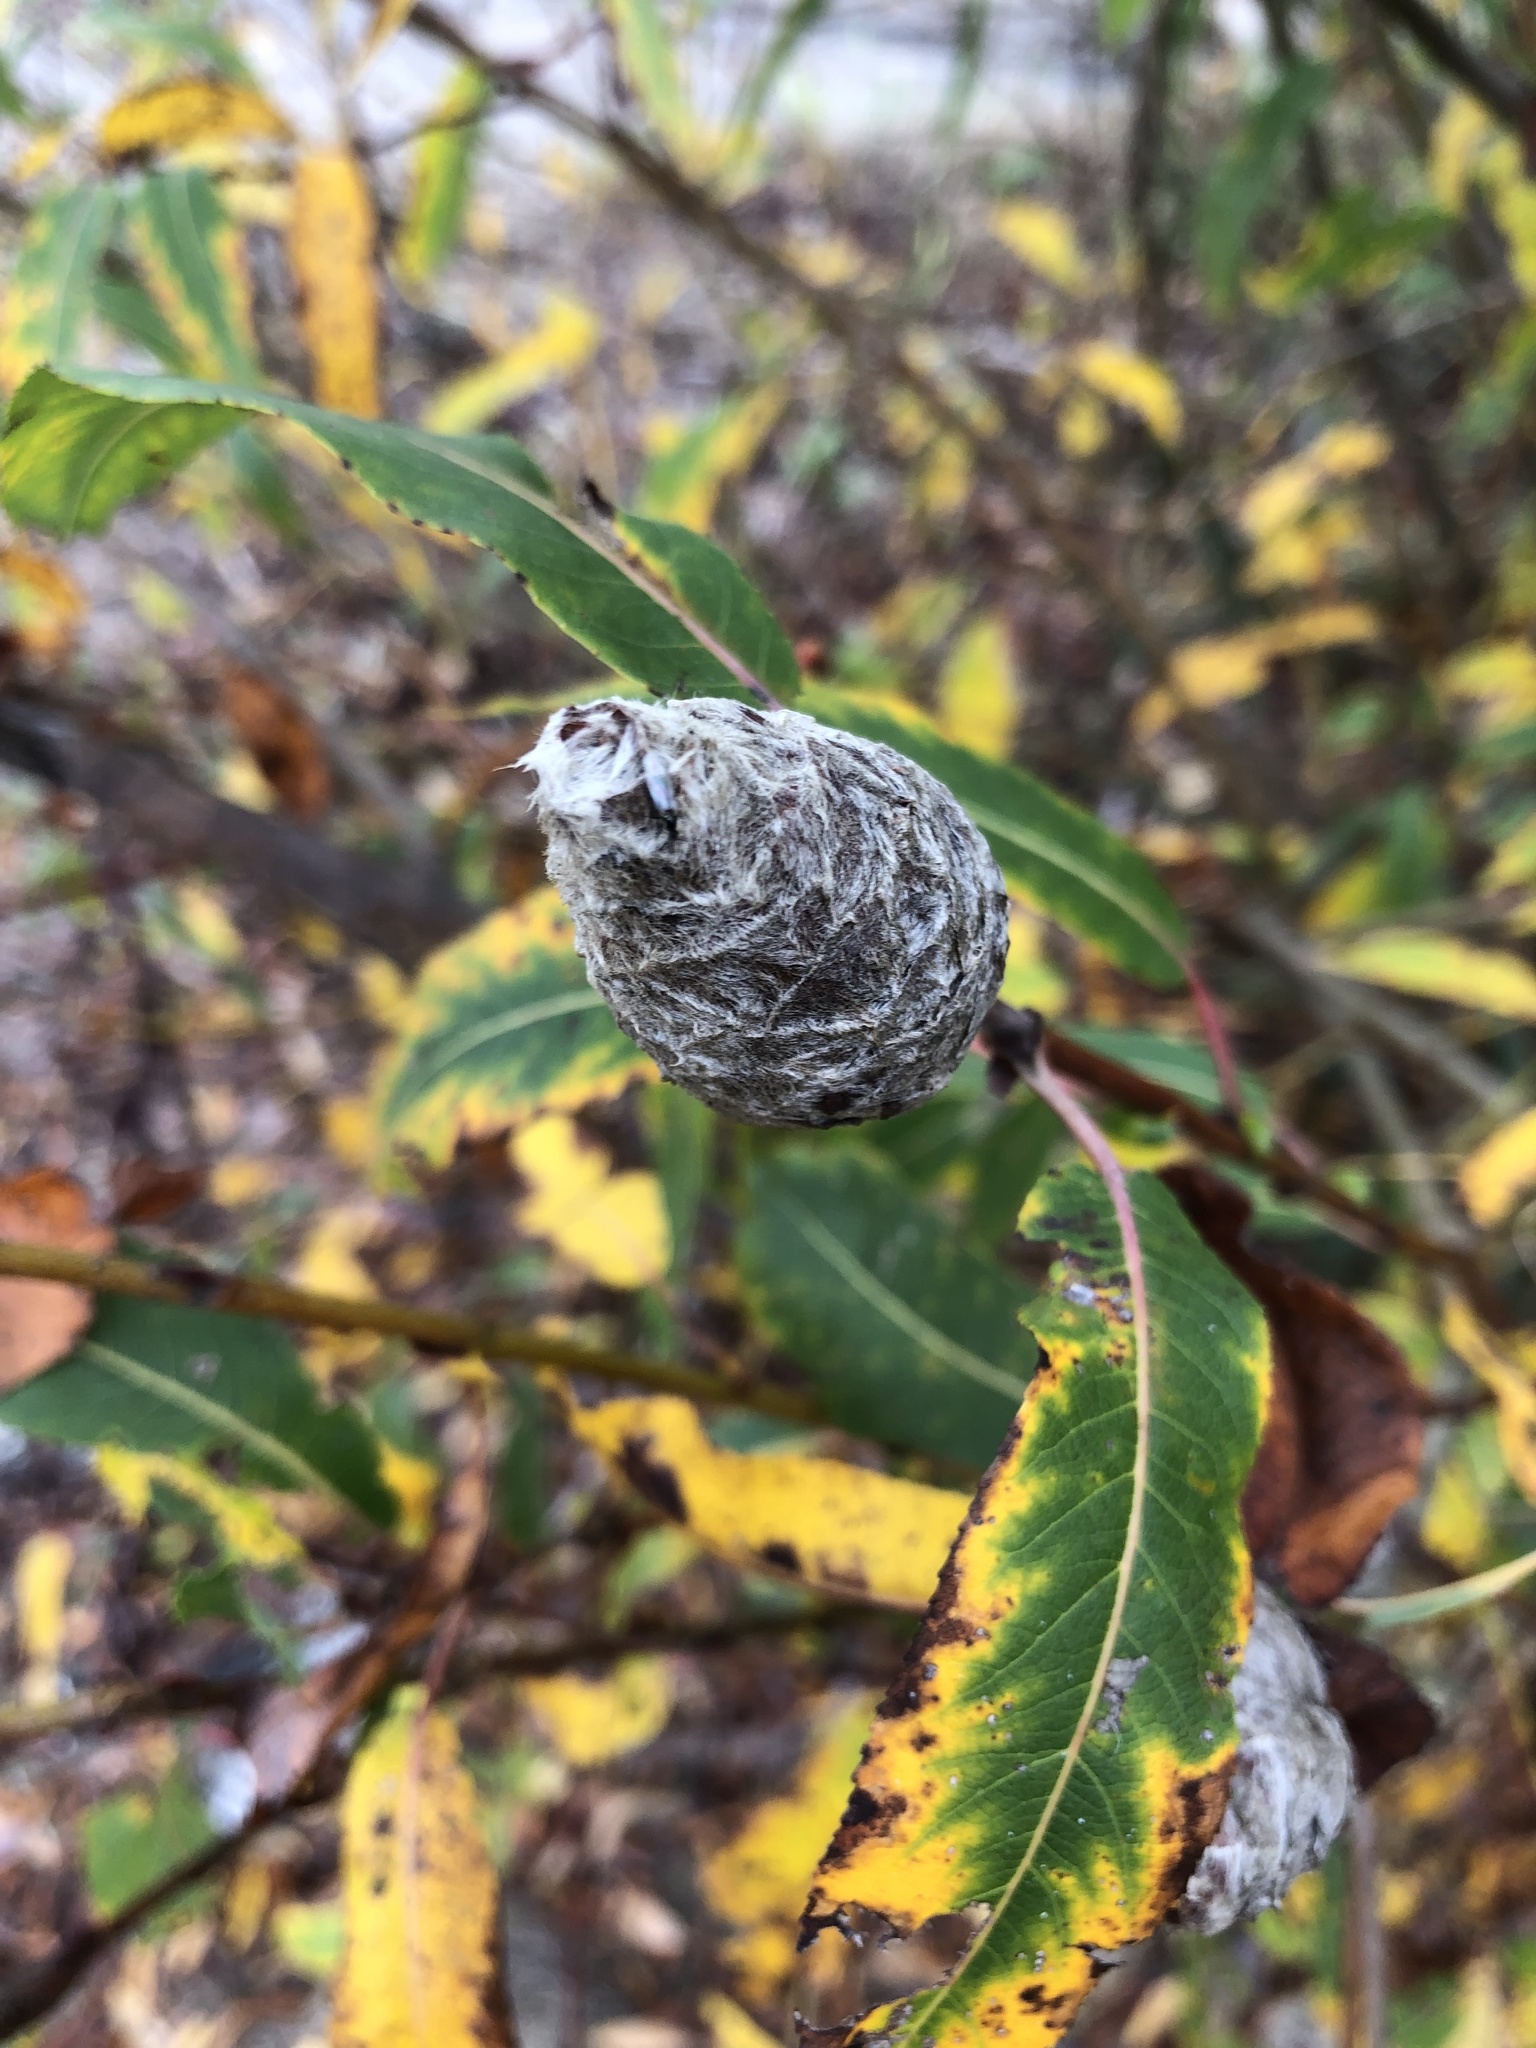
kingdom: Animalia
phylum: Arthropoda
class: Insecta
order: Diptera
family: Cecidomyiidae
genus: Rabdophaga
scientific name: Rabdophaga strobiloides
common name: Willow pinecone gall midge
